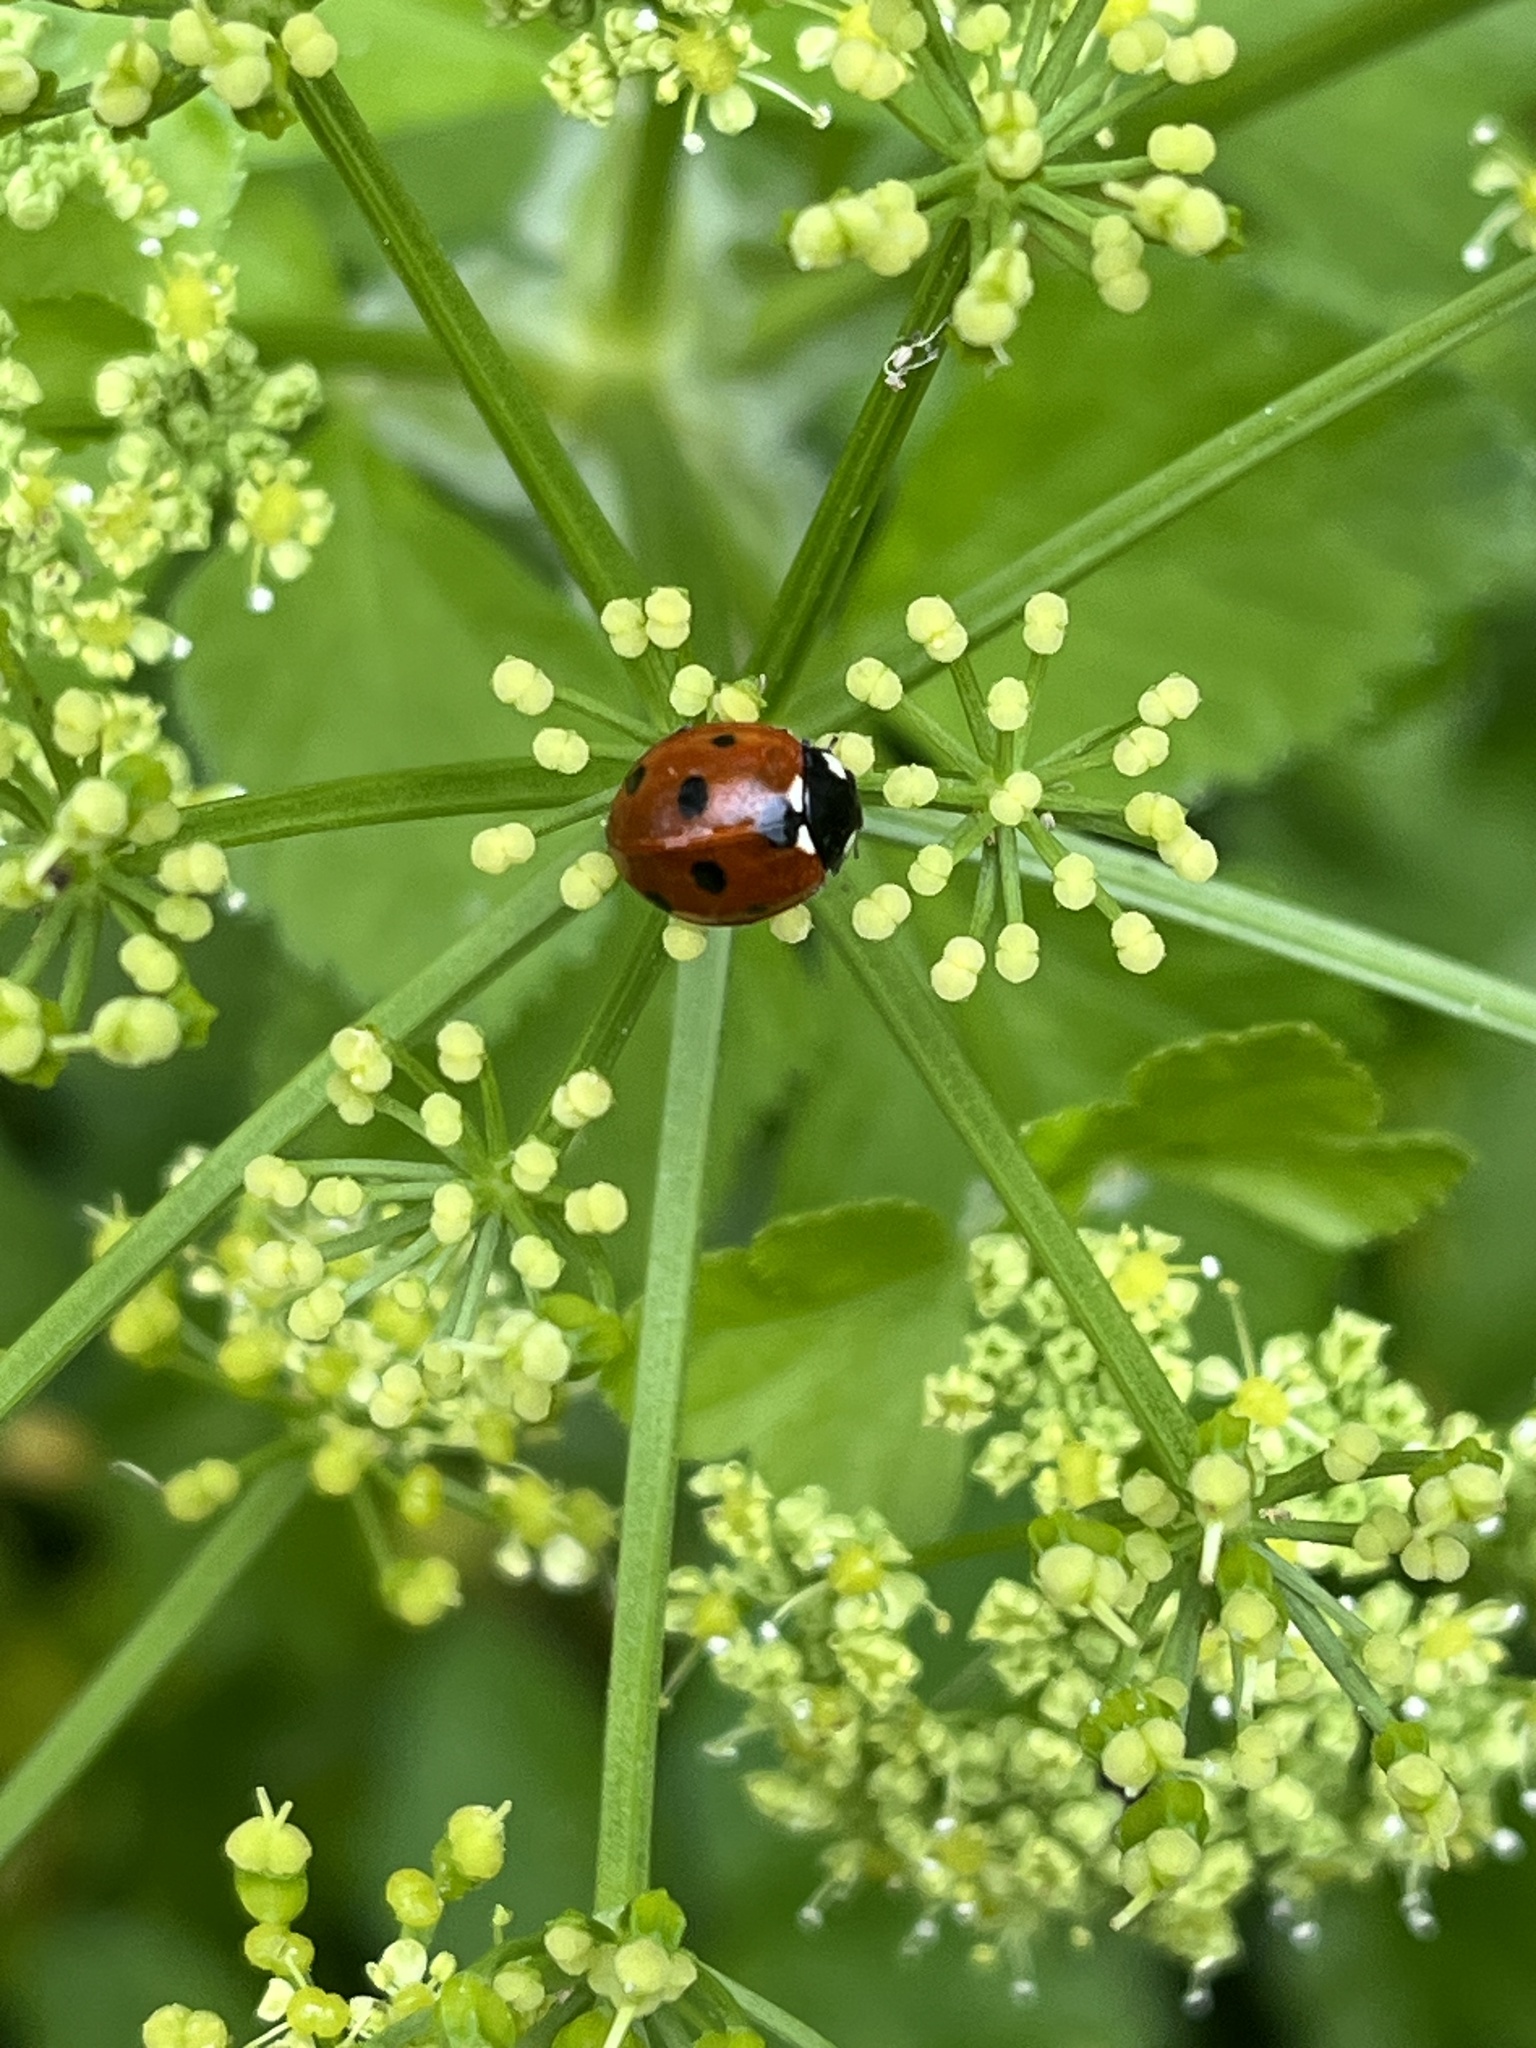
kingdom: Animalia
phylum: Arthropoda
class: Insecta
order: Coleoptera
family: Coccinellidae
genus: Coccinella
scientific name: Coccinella septempunctata
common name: Sevenspotted lady beetle
